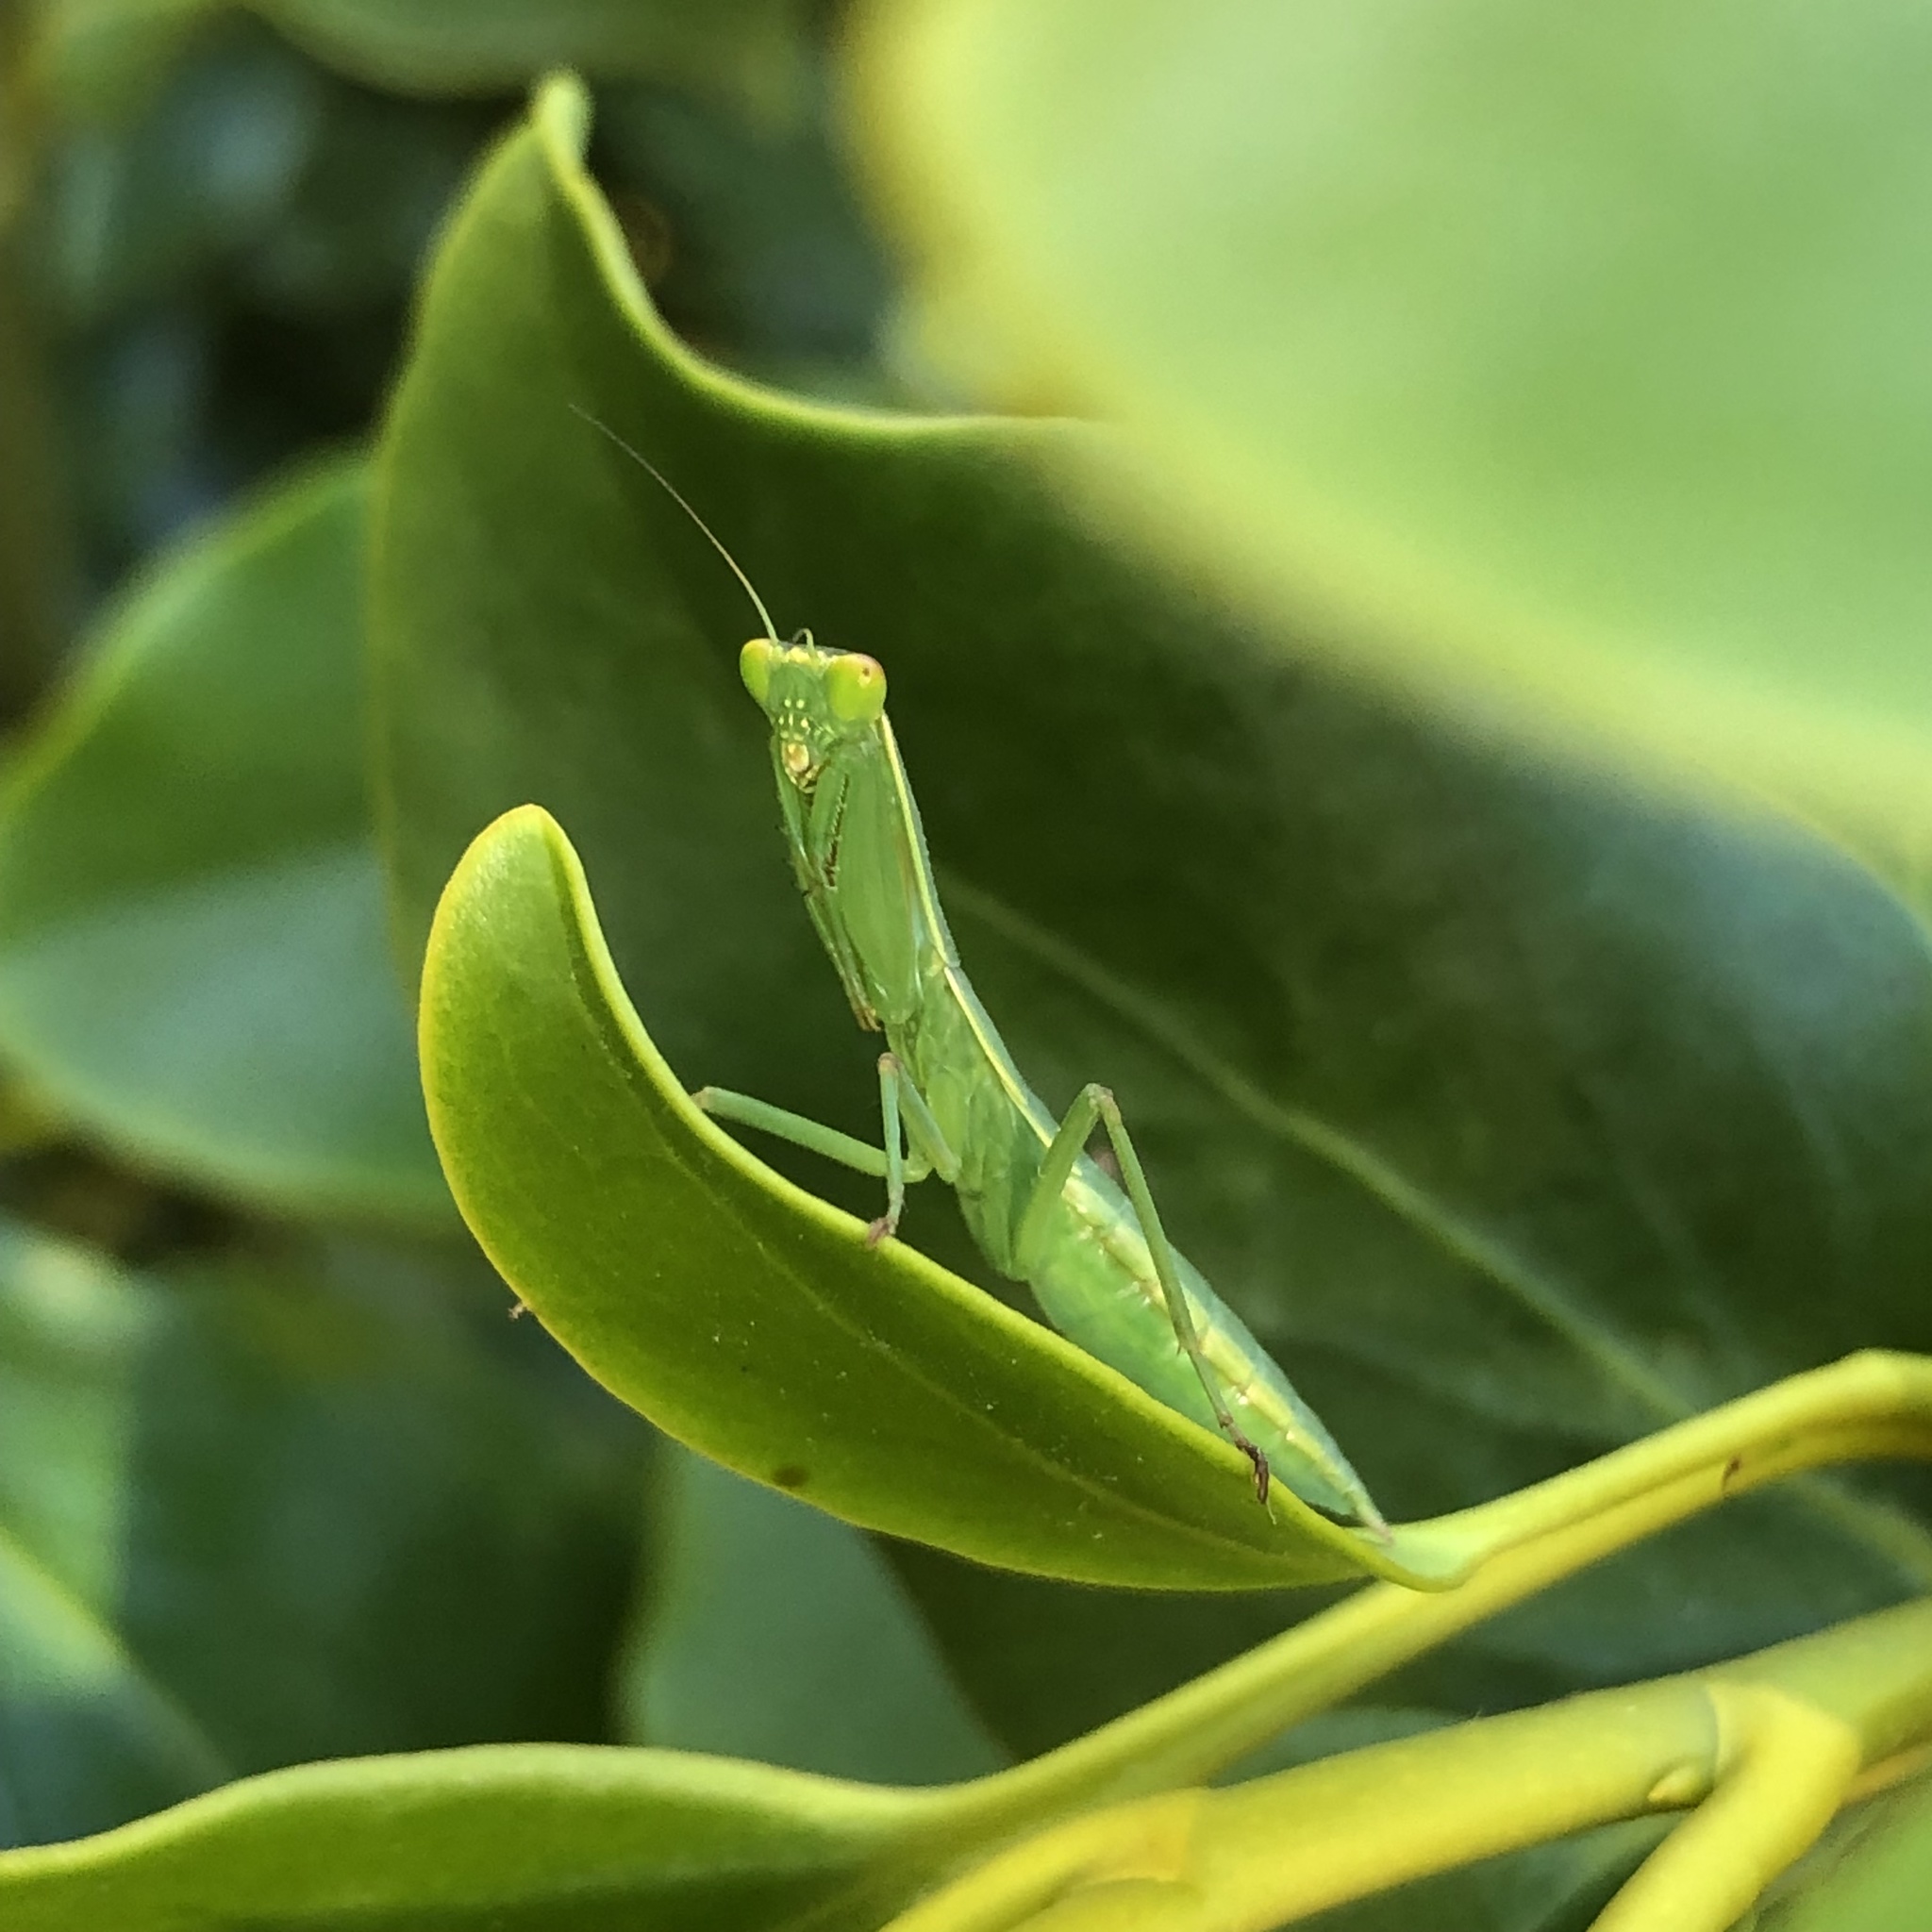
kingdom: Animalia
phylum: Arthropoda
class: Insecta
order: Mantodea
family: Mantidae
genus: Orthodera
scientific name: Orthodera novaezealandiae
